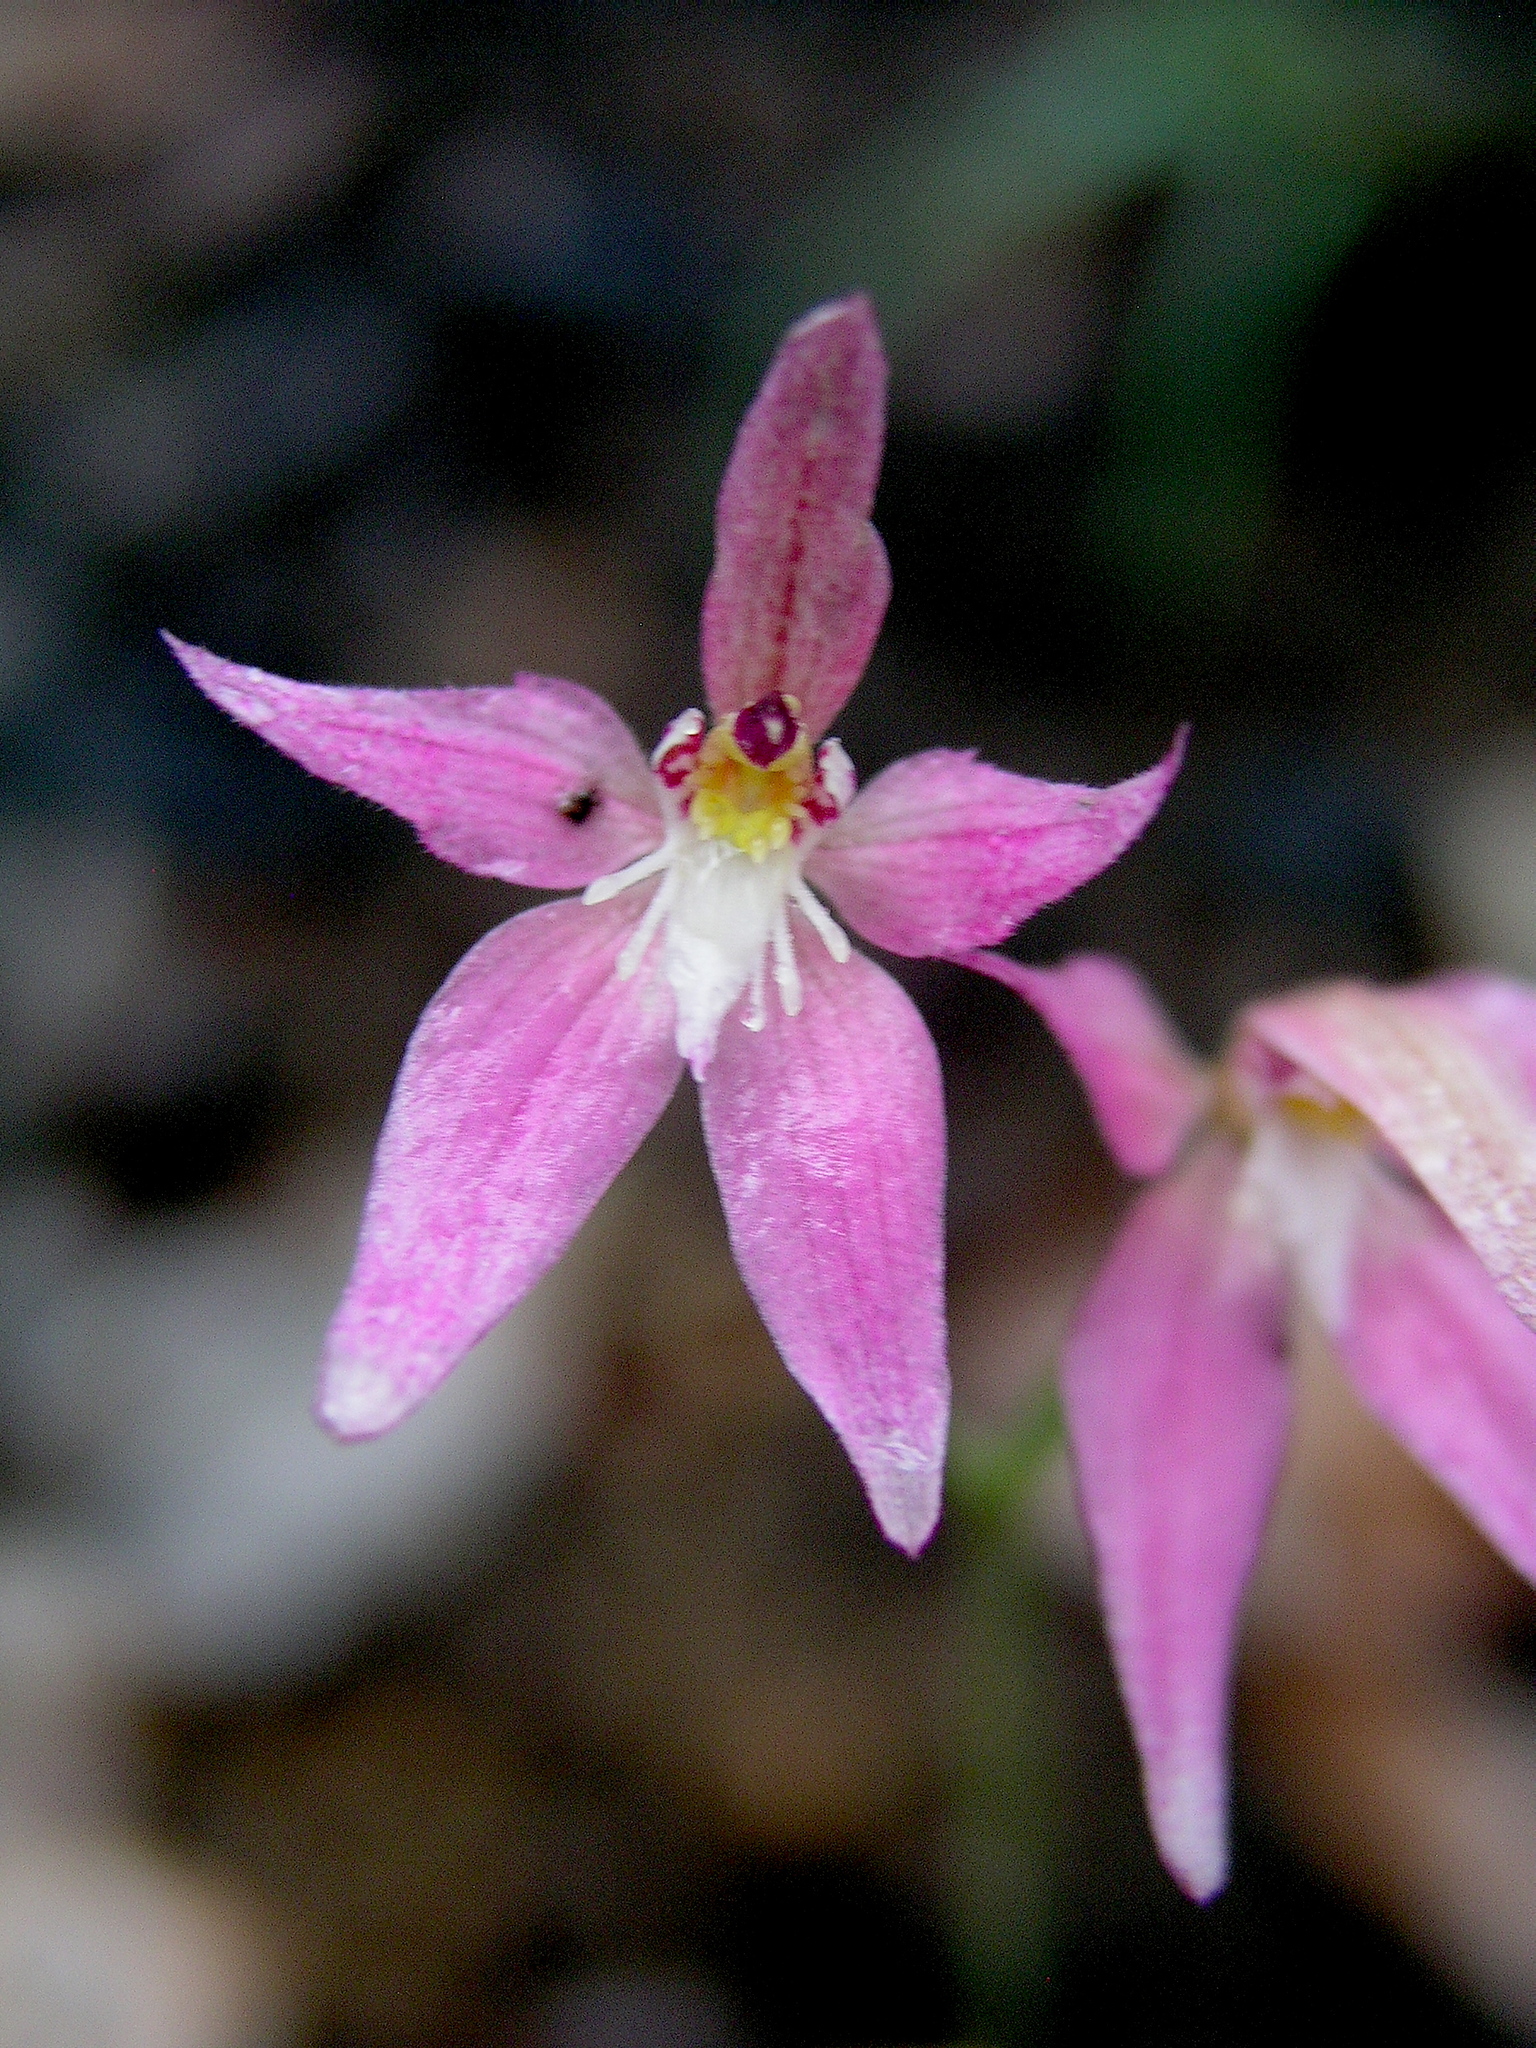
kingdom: Plantae
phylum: Tracheophyta
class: Liliopsida
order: Asparagales
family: Orchidaceae
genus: Caladenia
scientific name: Caladenia spectabilis
